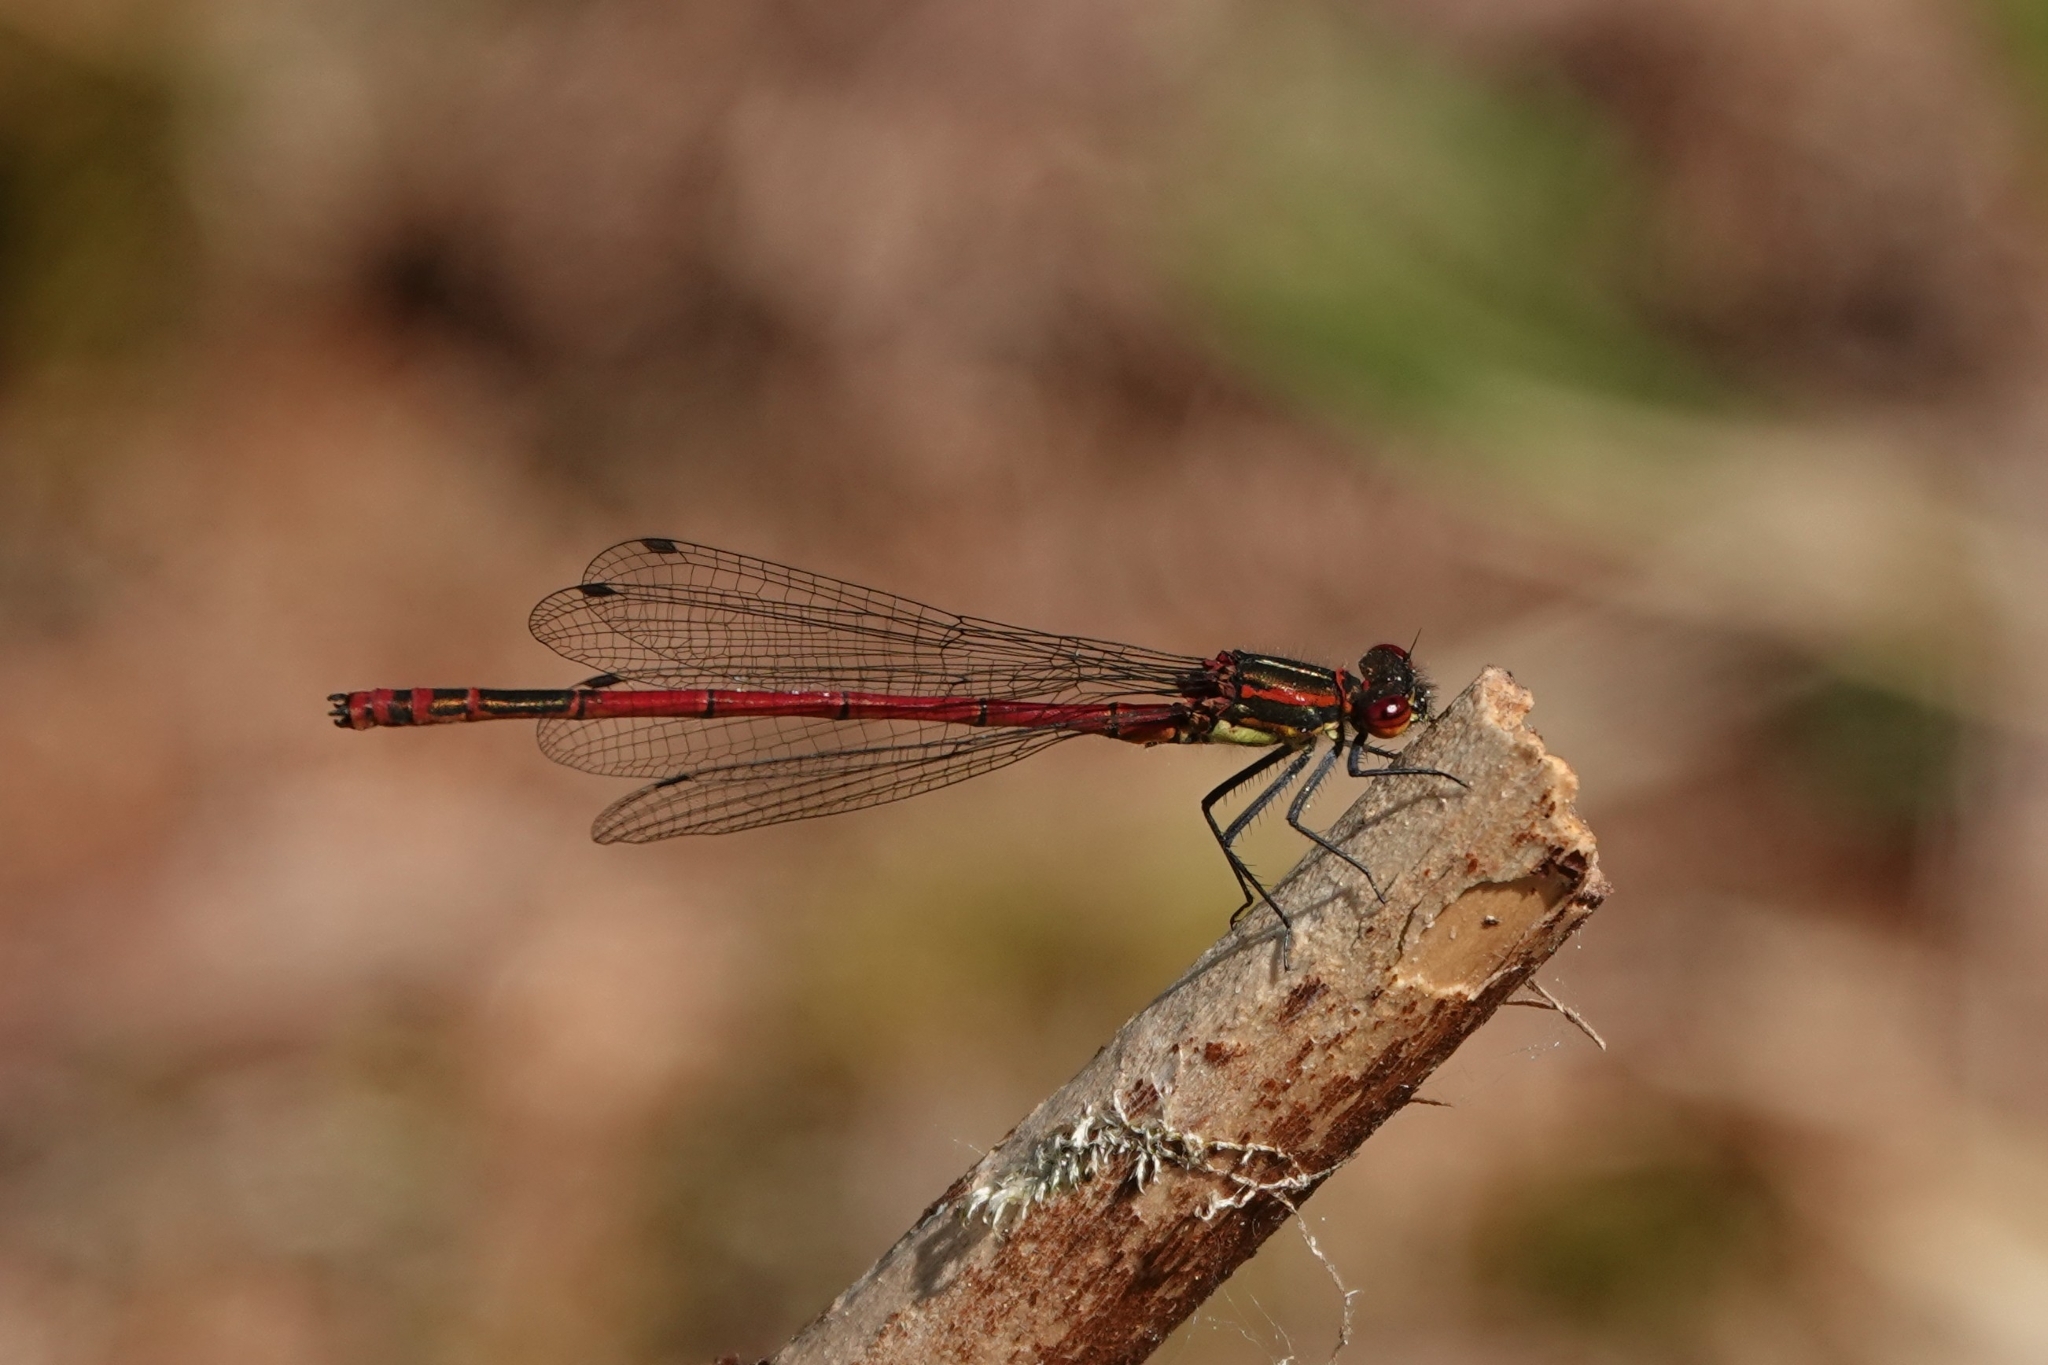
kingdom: Animalia
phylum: Arthropoda
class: Insecta
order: Odonata
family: Coenagrionidae
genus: Pyrrhosoma
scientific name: Pyrrhosoma nymphula
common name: Large red damsel
